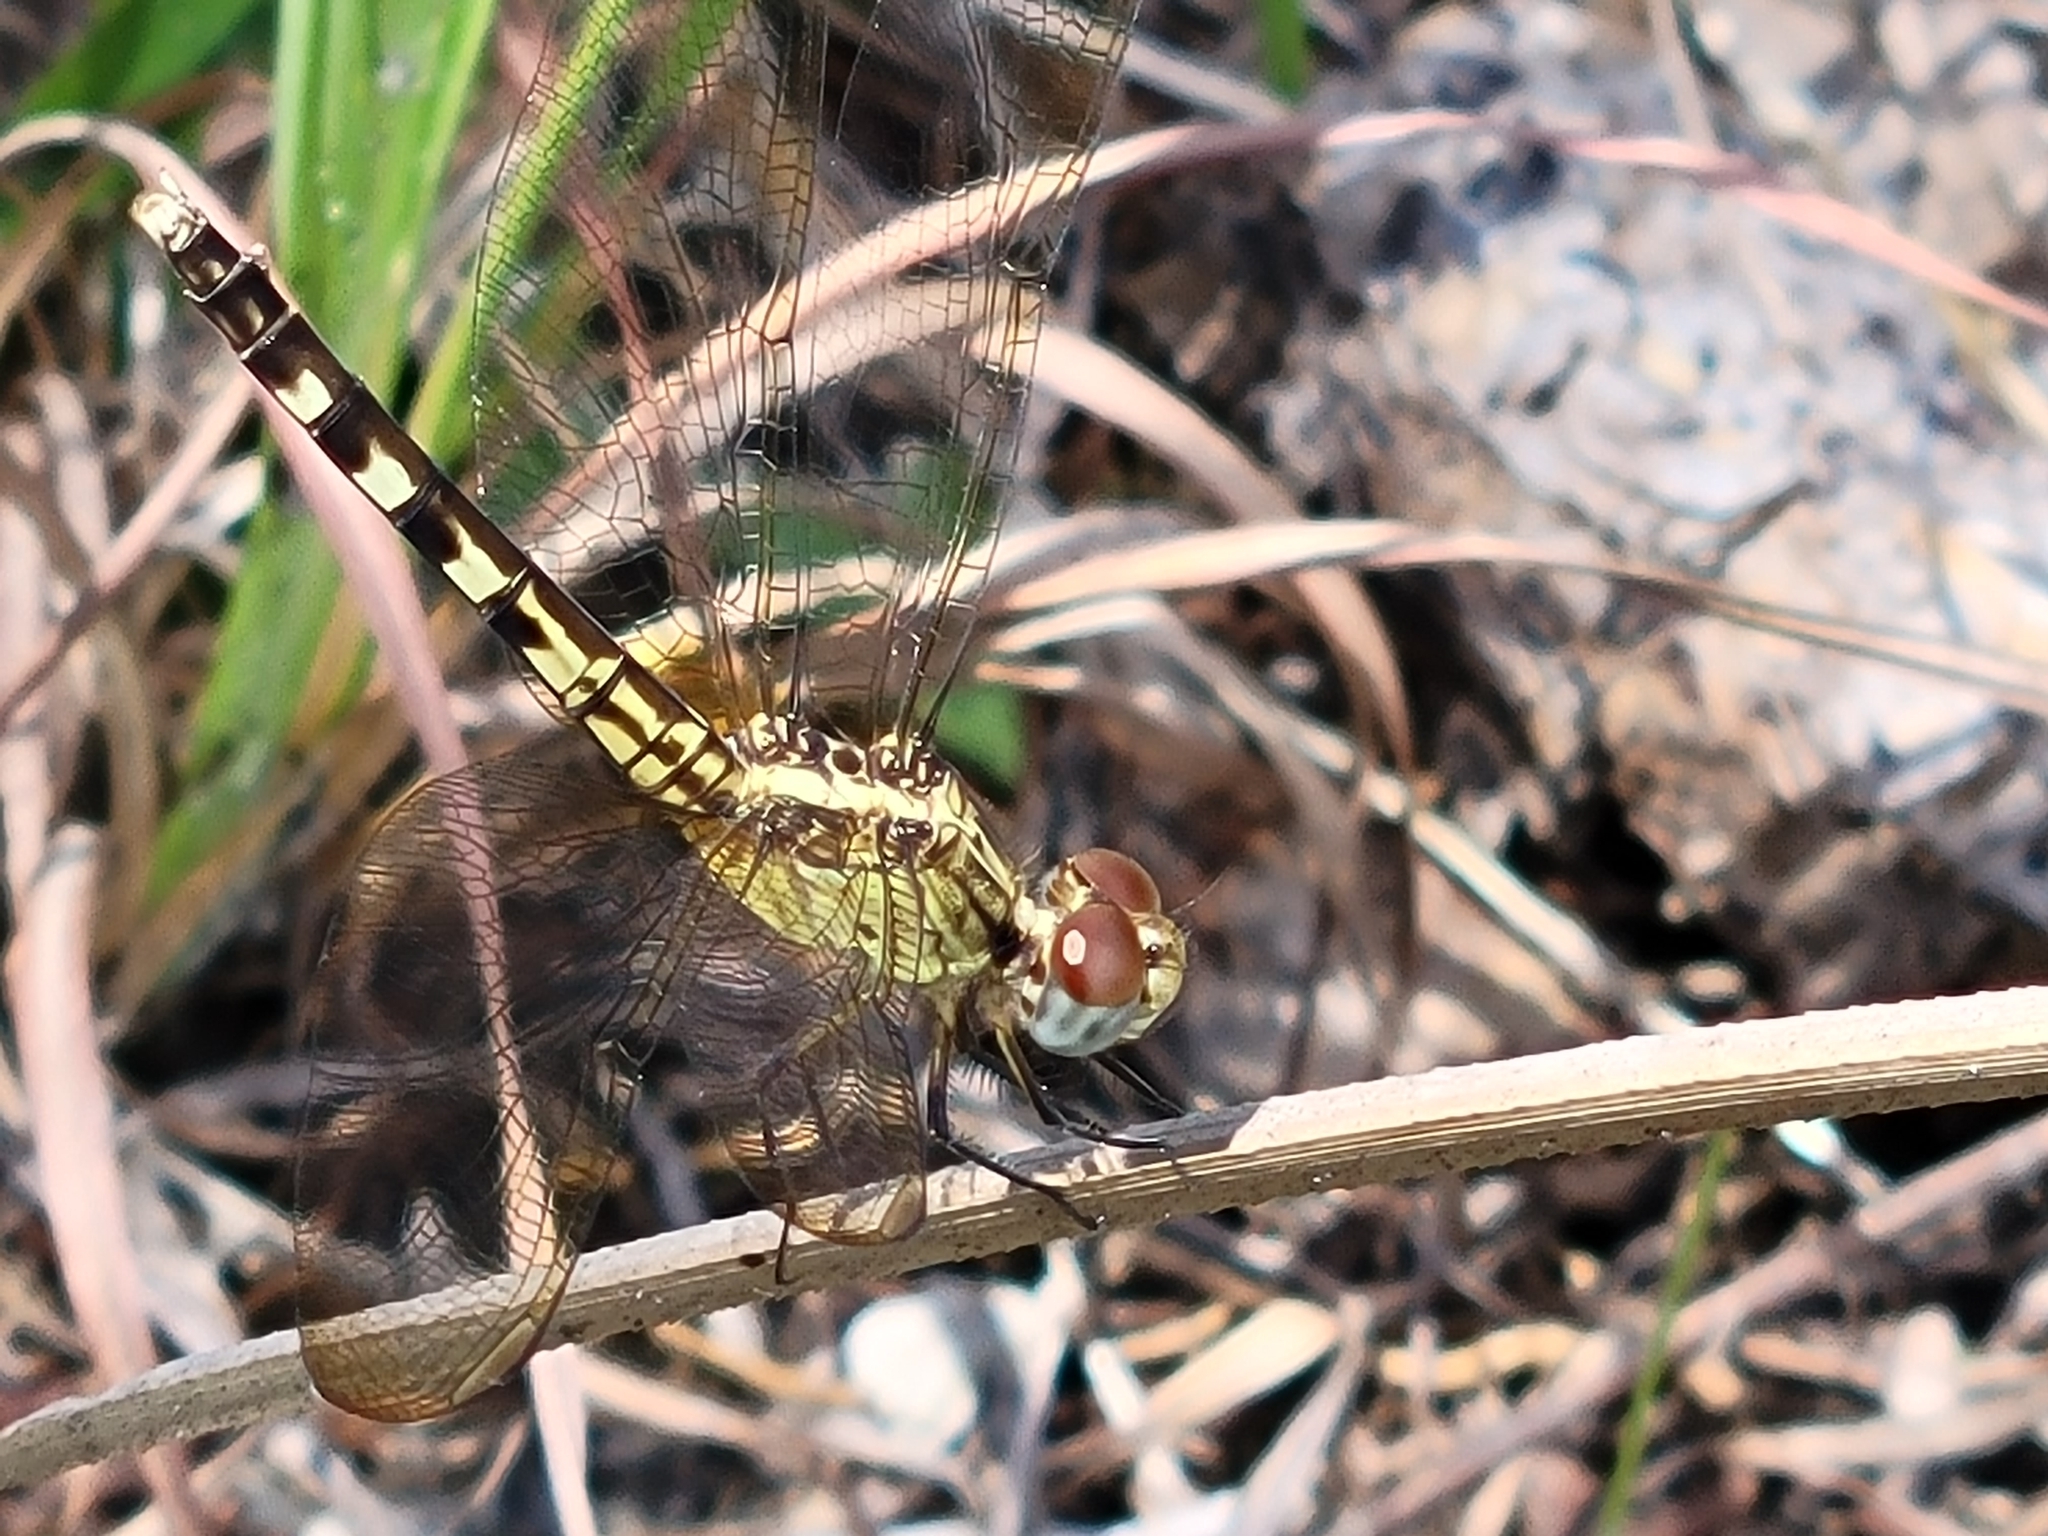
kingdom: Animalia
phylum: Arthropoda
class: Insecta
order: Odonata
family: Libellulidae
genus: Erythrodiplax
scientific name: Erythrodiplax minuscula
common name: Little blue dragonlet
